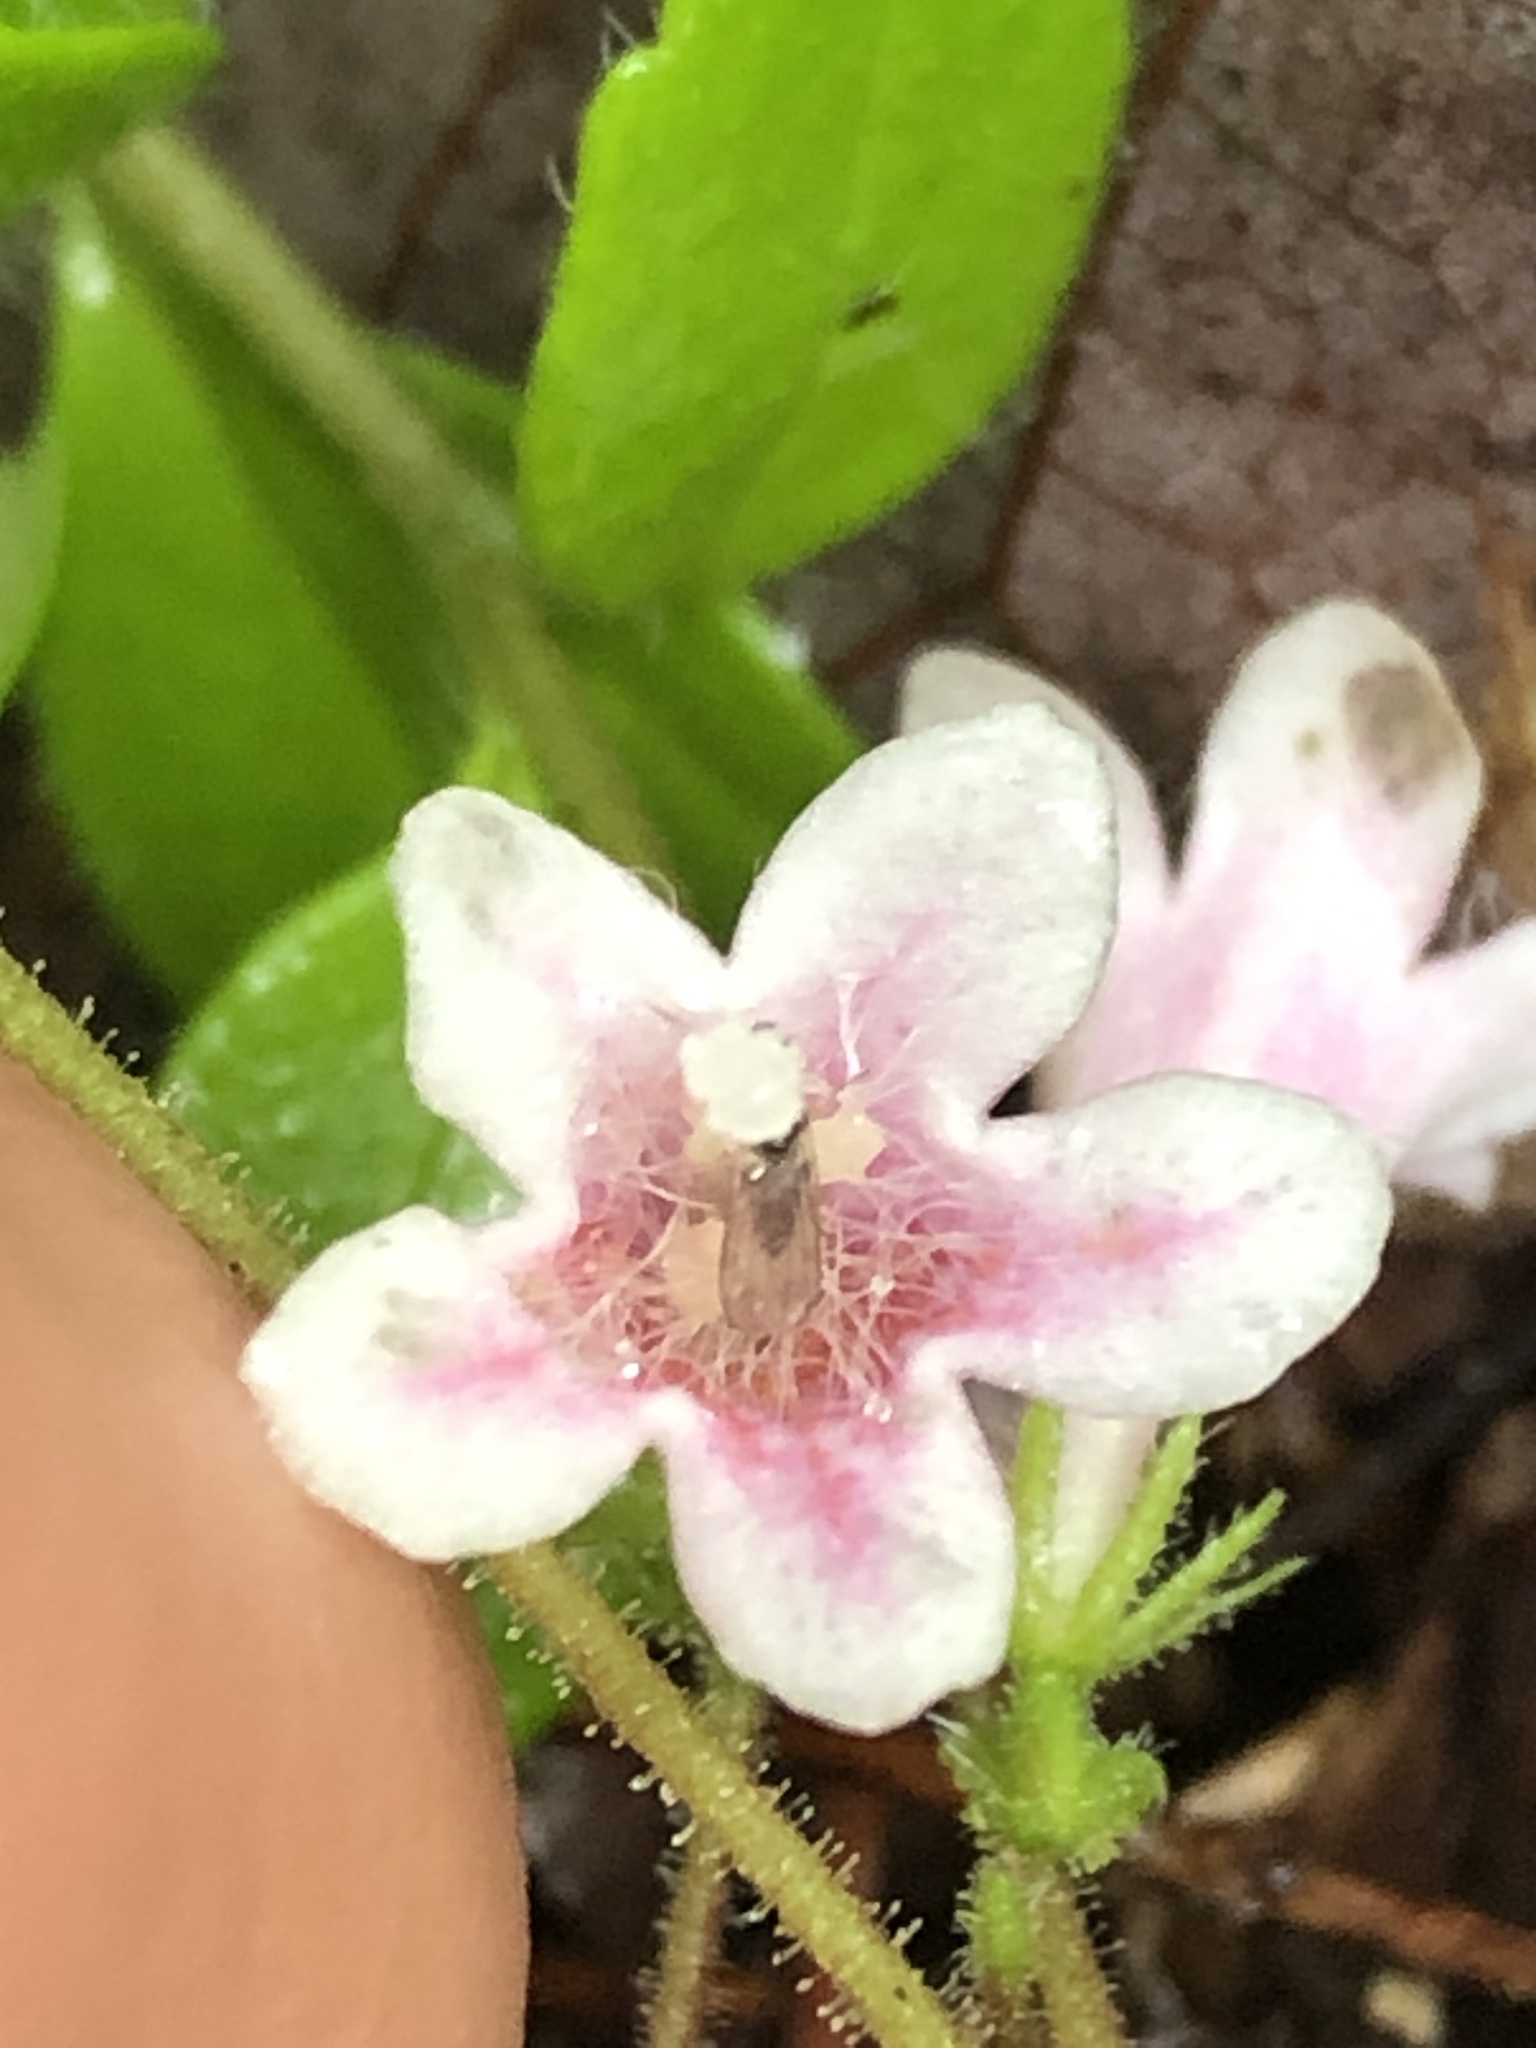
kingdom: Plantae
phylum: Tracheophyta
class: Magnoliopsida
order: Dipsacales
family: Caprifoliaceae
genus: Linnaea
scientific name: Linnaea borealis
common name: Twinflower
